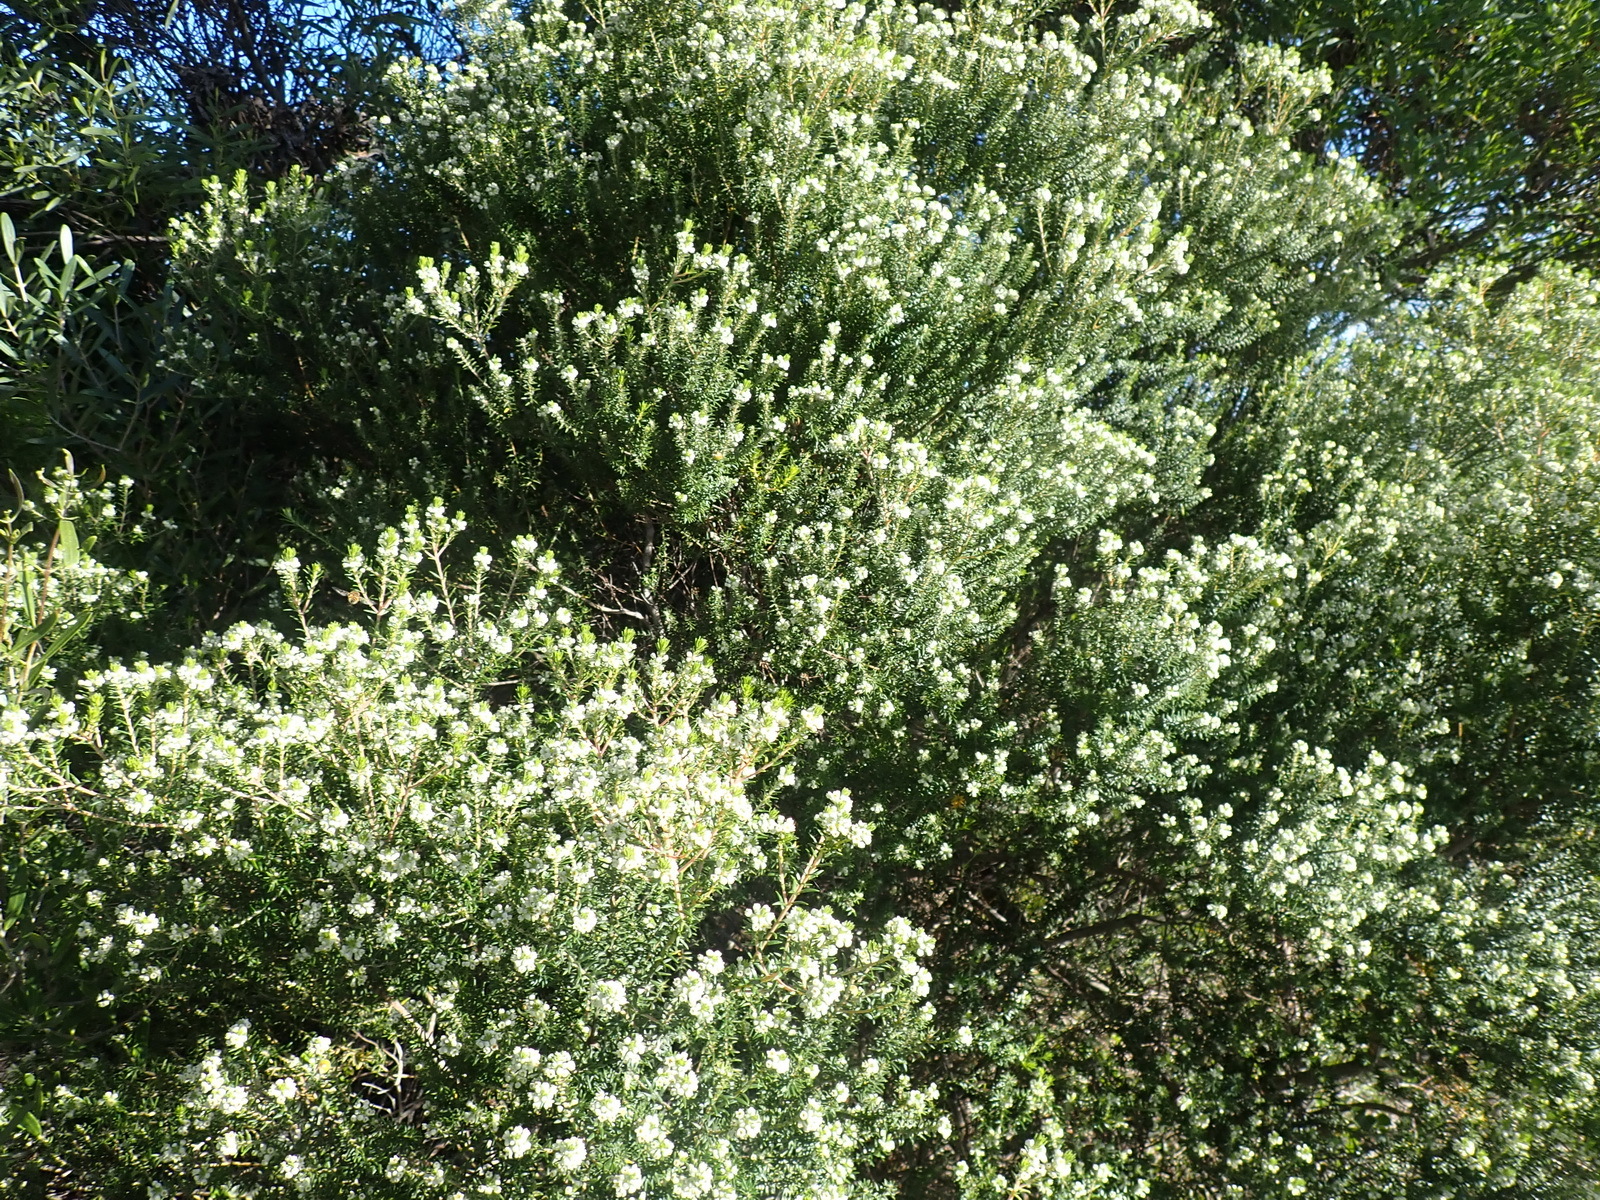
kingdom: Plantae
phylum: Tracheophyta
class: Magnoliopsida
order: Rosales
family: Rhamnaceae
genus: Phylica
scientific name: Phylica axillaris
